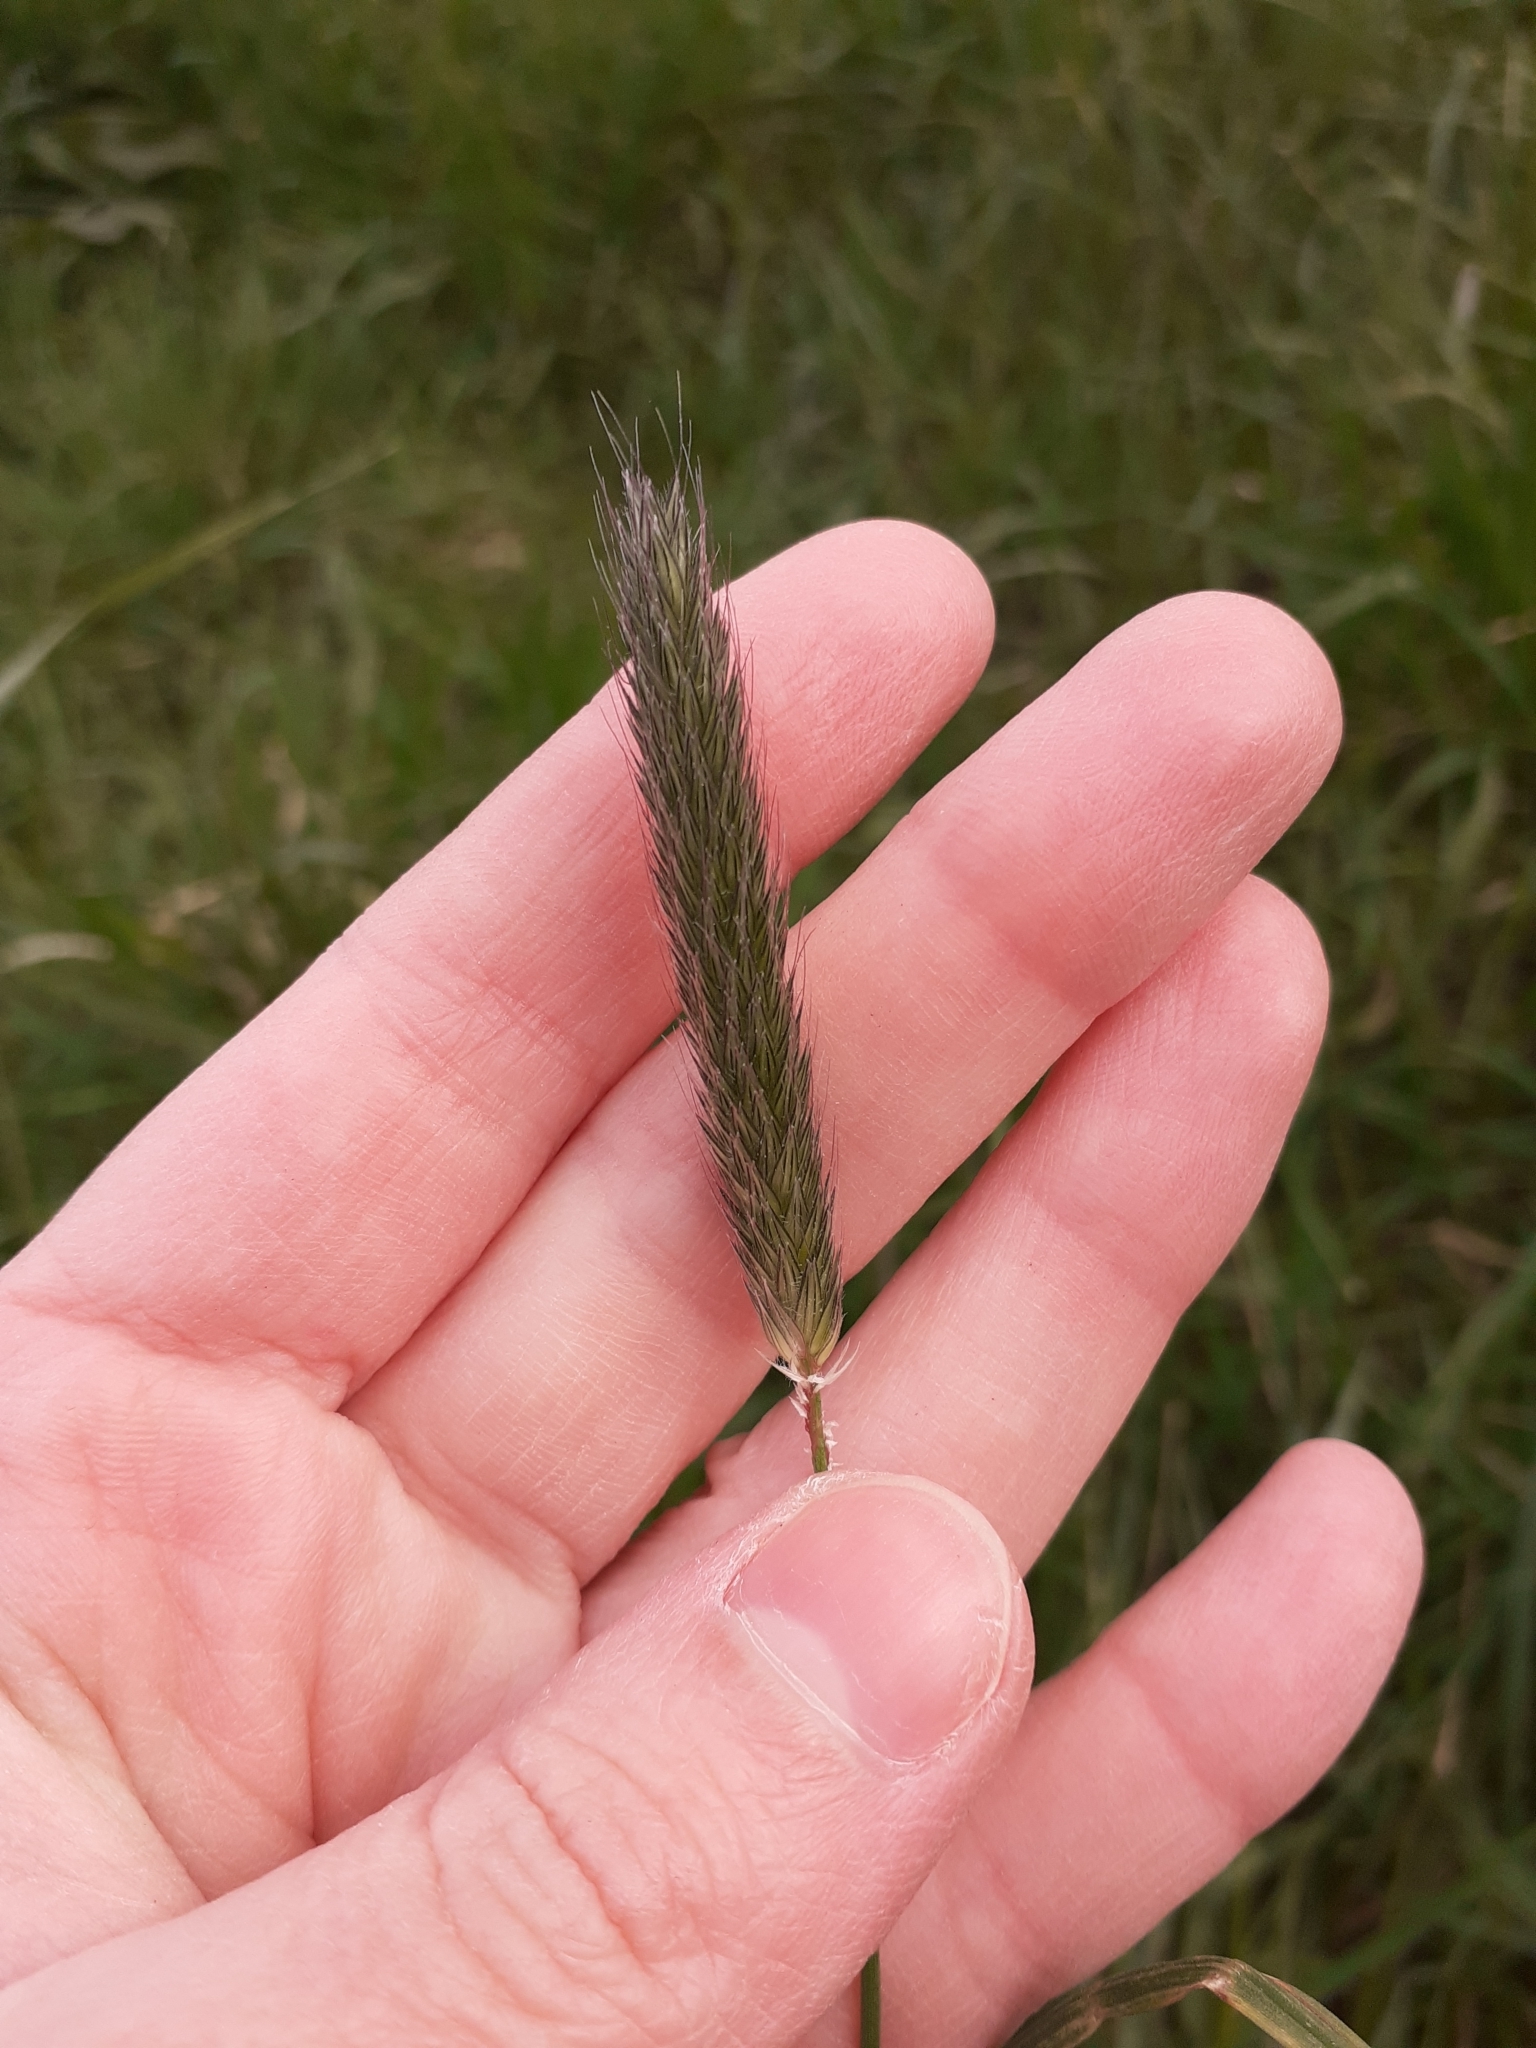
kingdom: Plantae
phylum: Tracheophyta
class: Liliopsida
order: Poales
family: Poaceae
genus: Alopecurus
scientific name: Alopecurus pratensis
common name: Meadow foxtail
